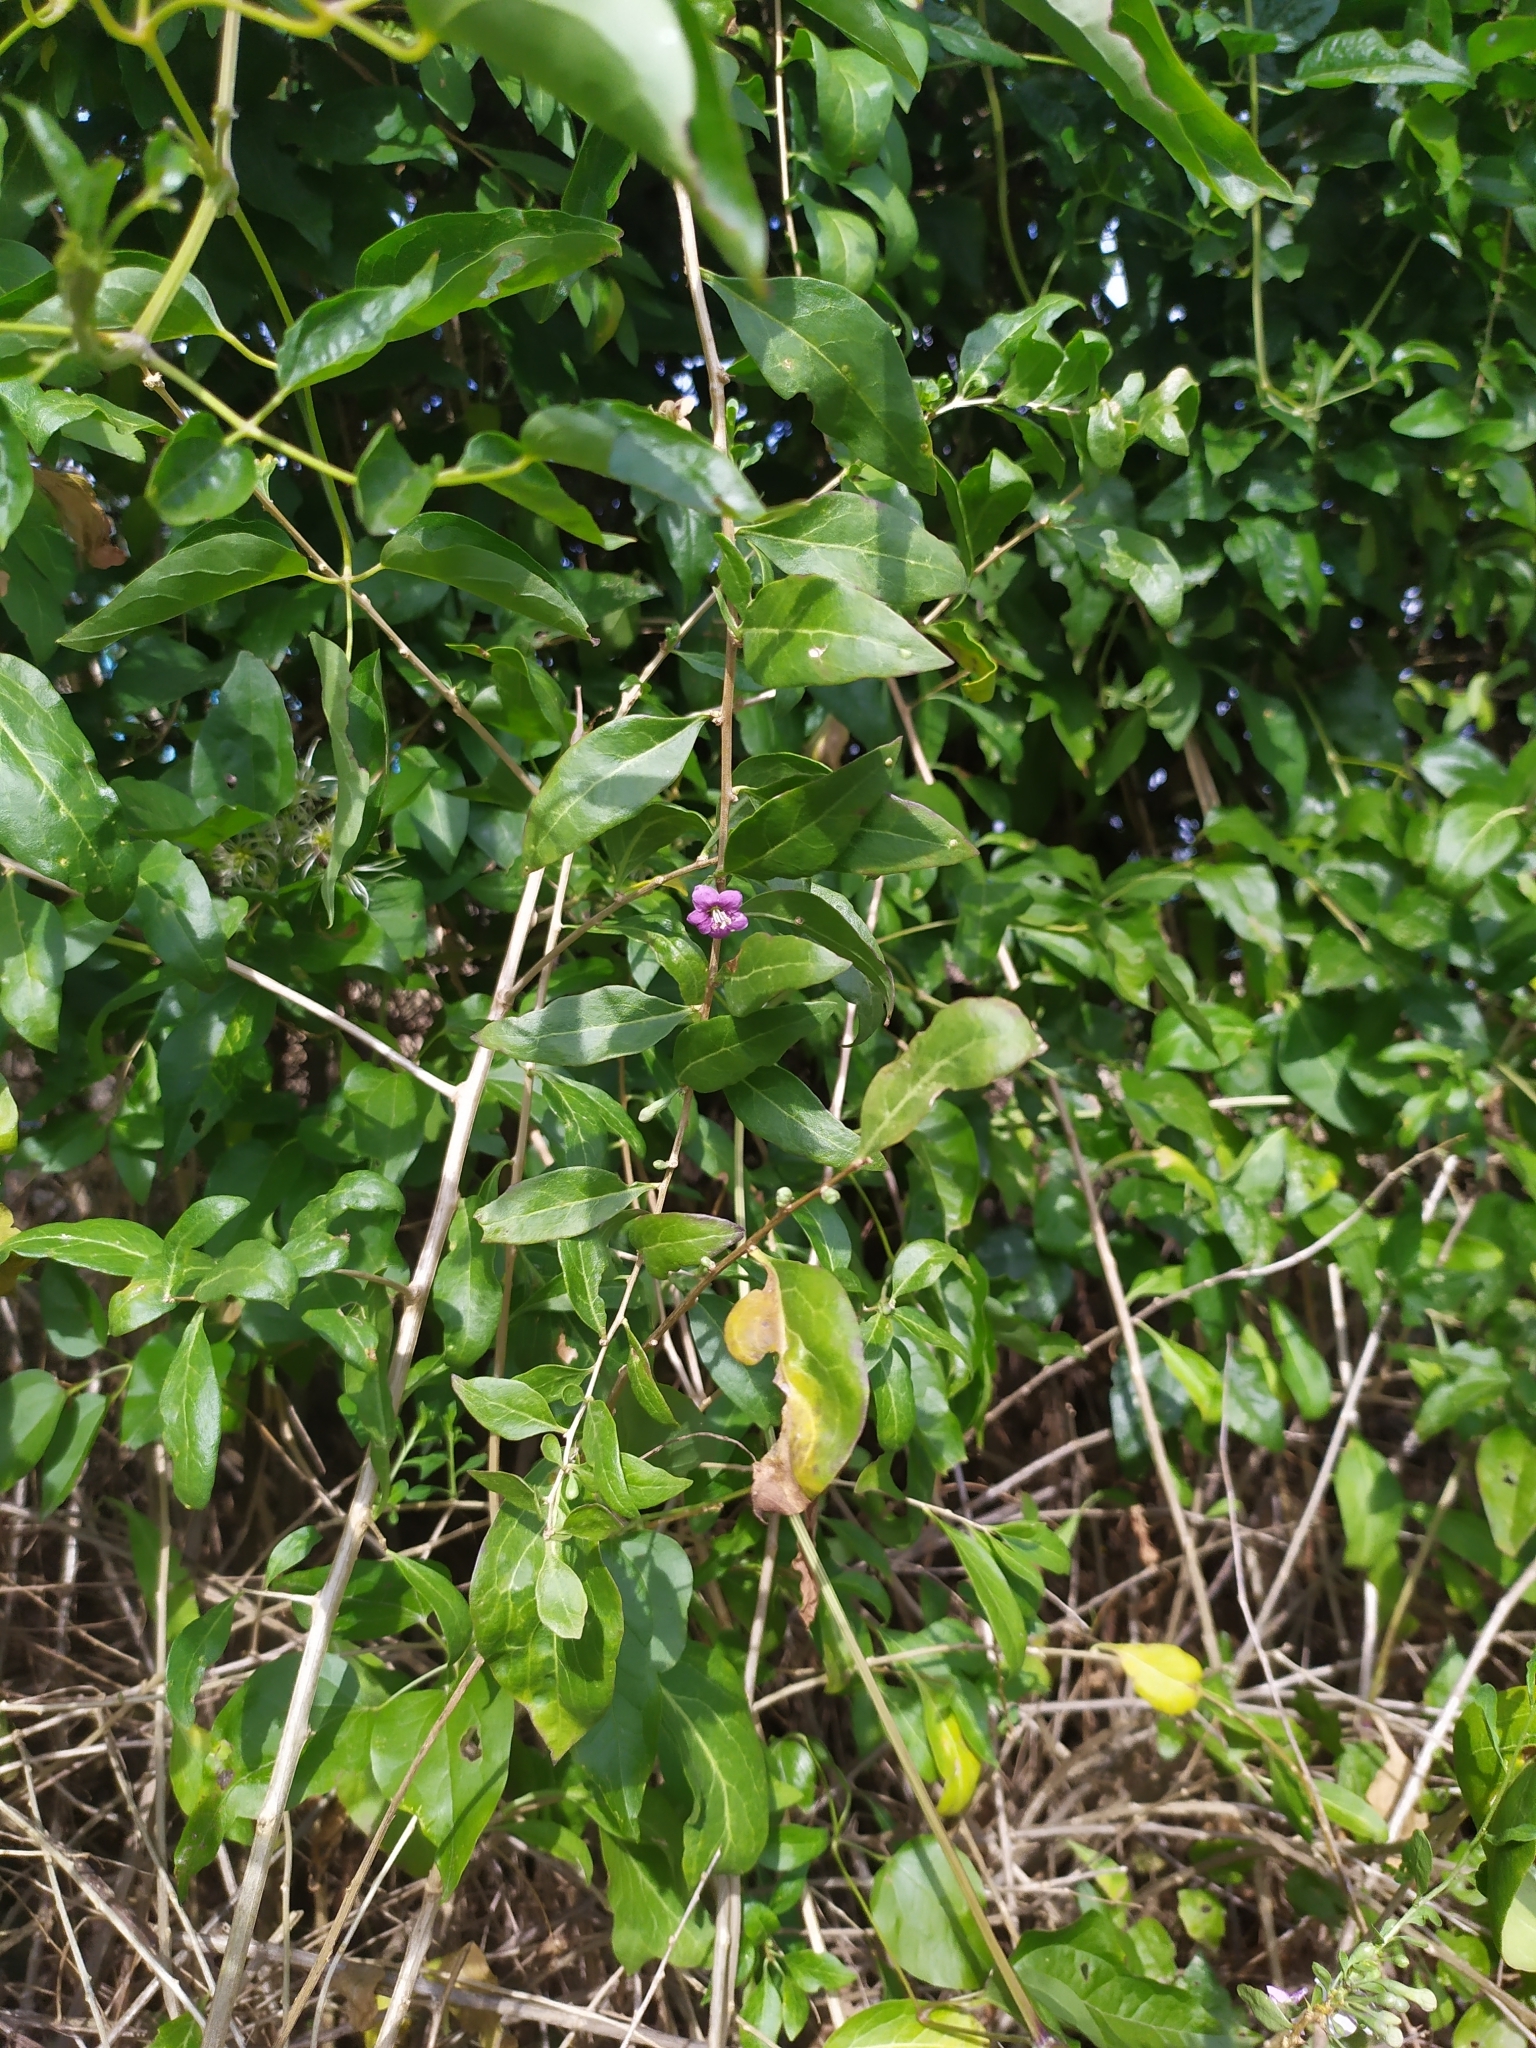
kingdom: Plantae
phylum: Tracheophyta
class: Magnoliopsida
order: Solanales
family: Solanaceae
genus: Lycium
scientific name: Lycium barbarum
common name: Duke of argyll's teaplant
